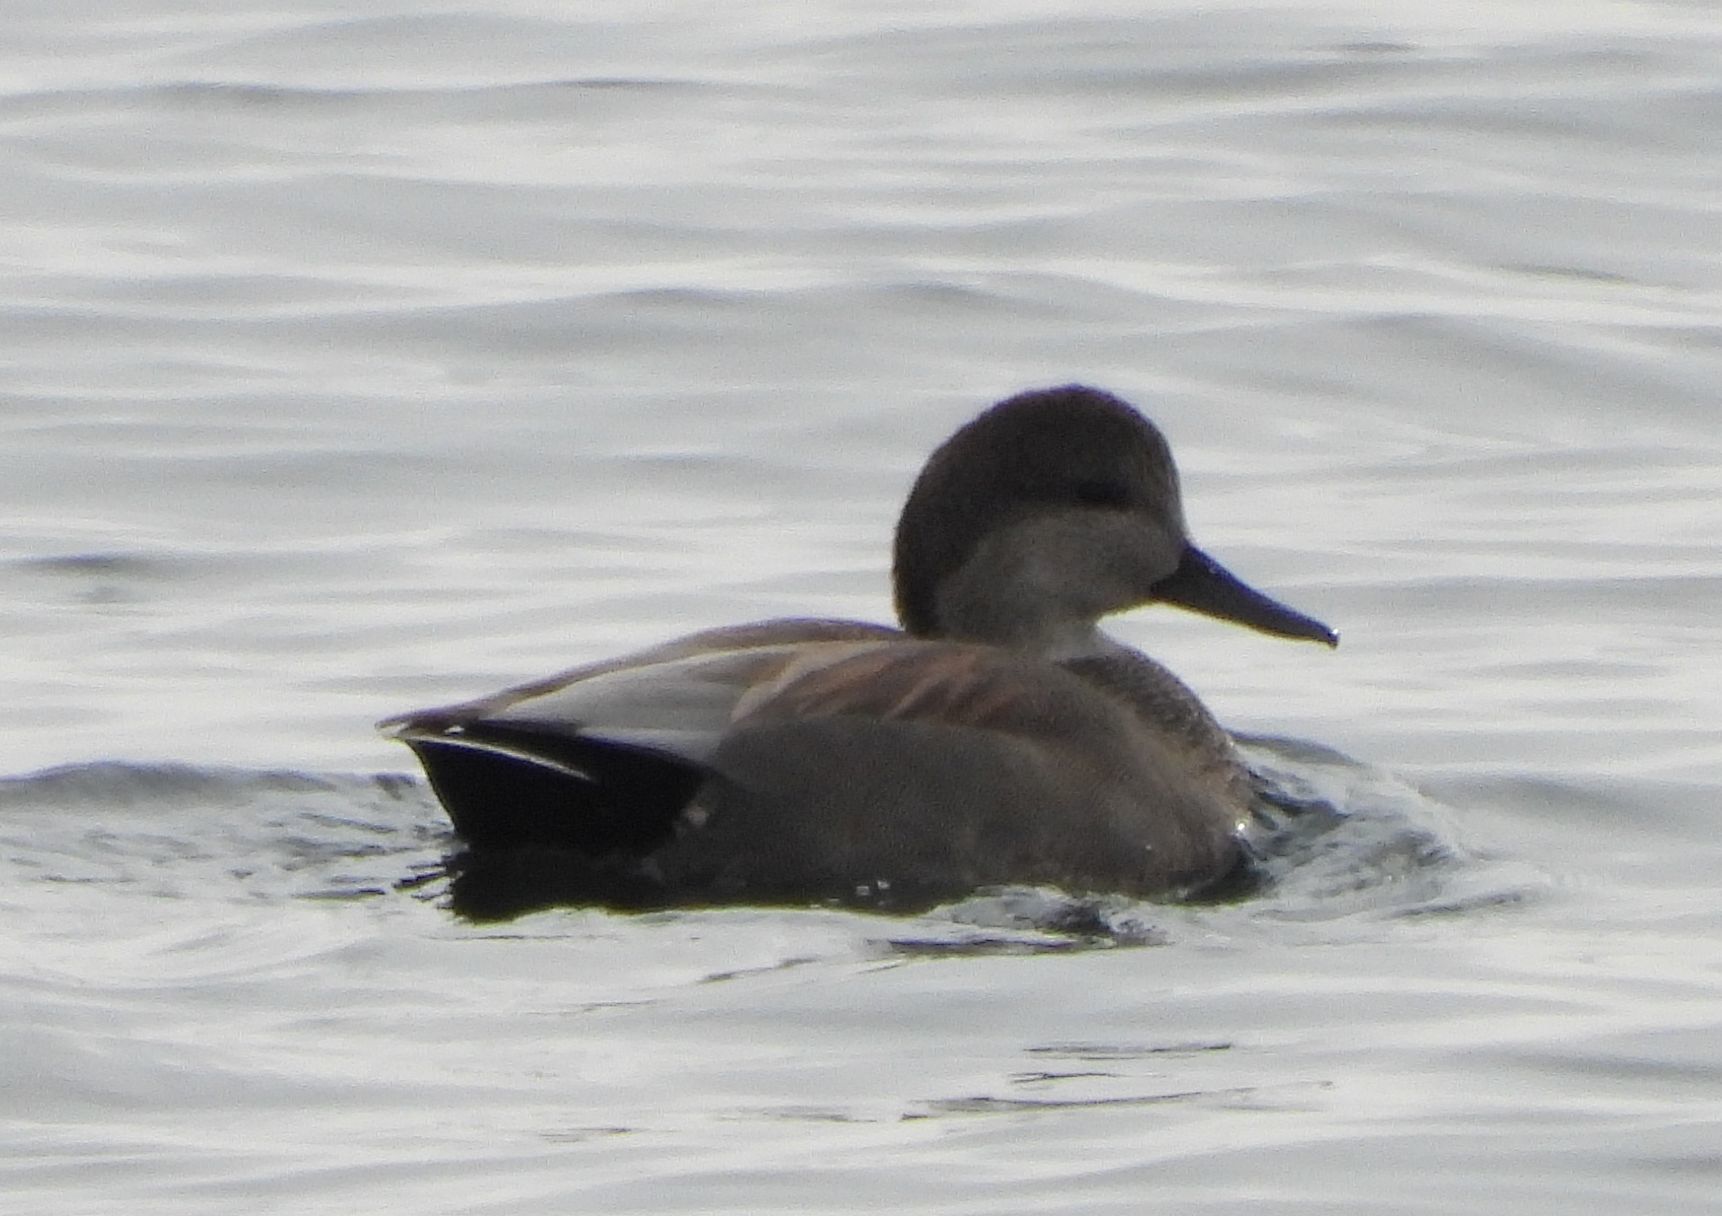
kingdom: Animalia
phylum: Chordata
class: Aves
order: Anseriformes
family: Anatidae
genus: Mareca
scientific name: Mareca strepera
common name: Gadwall
